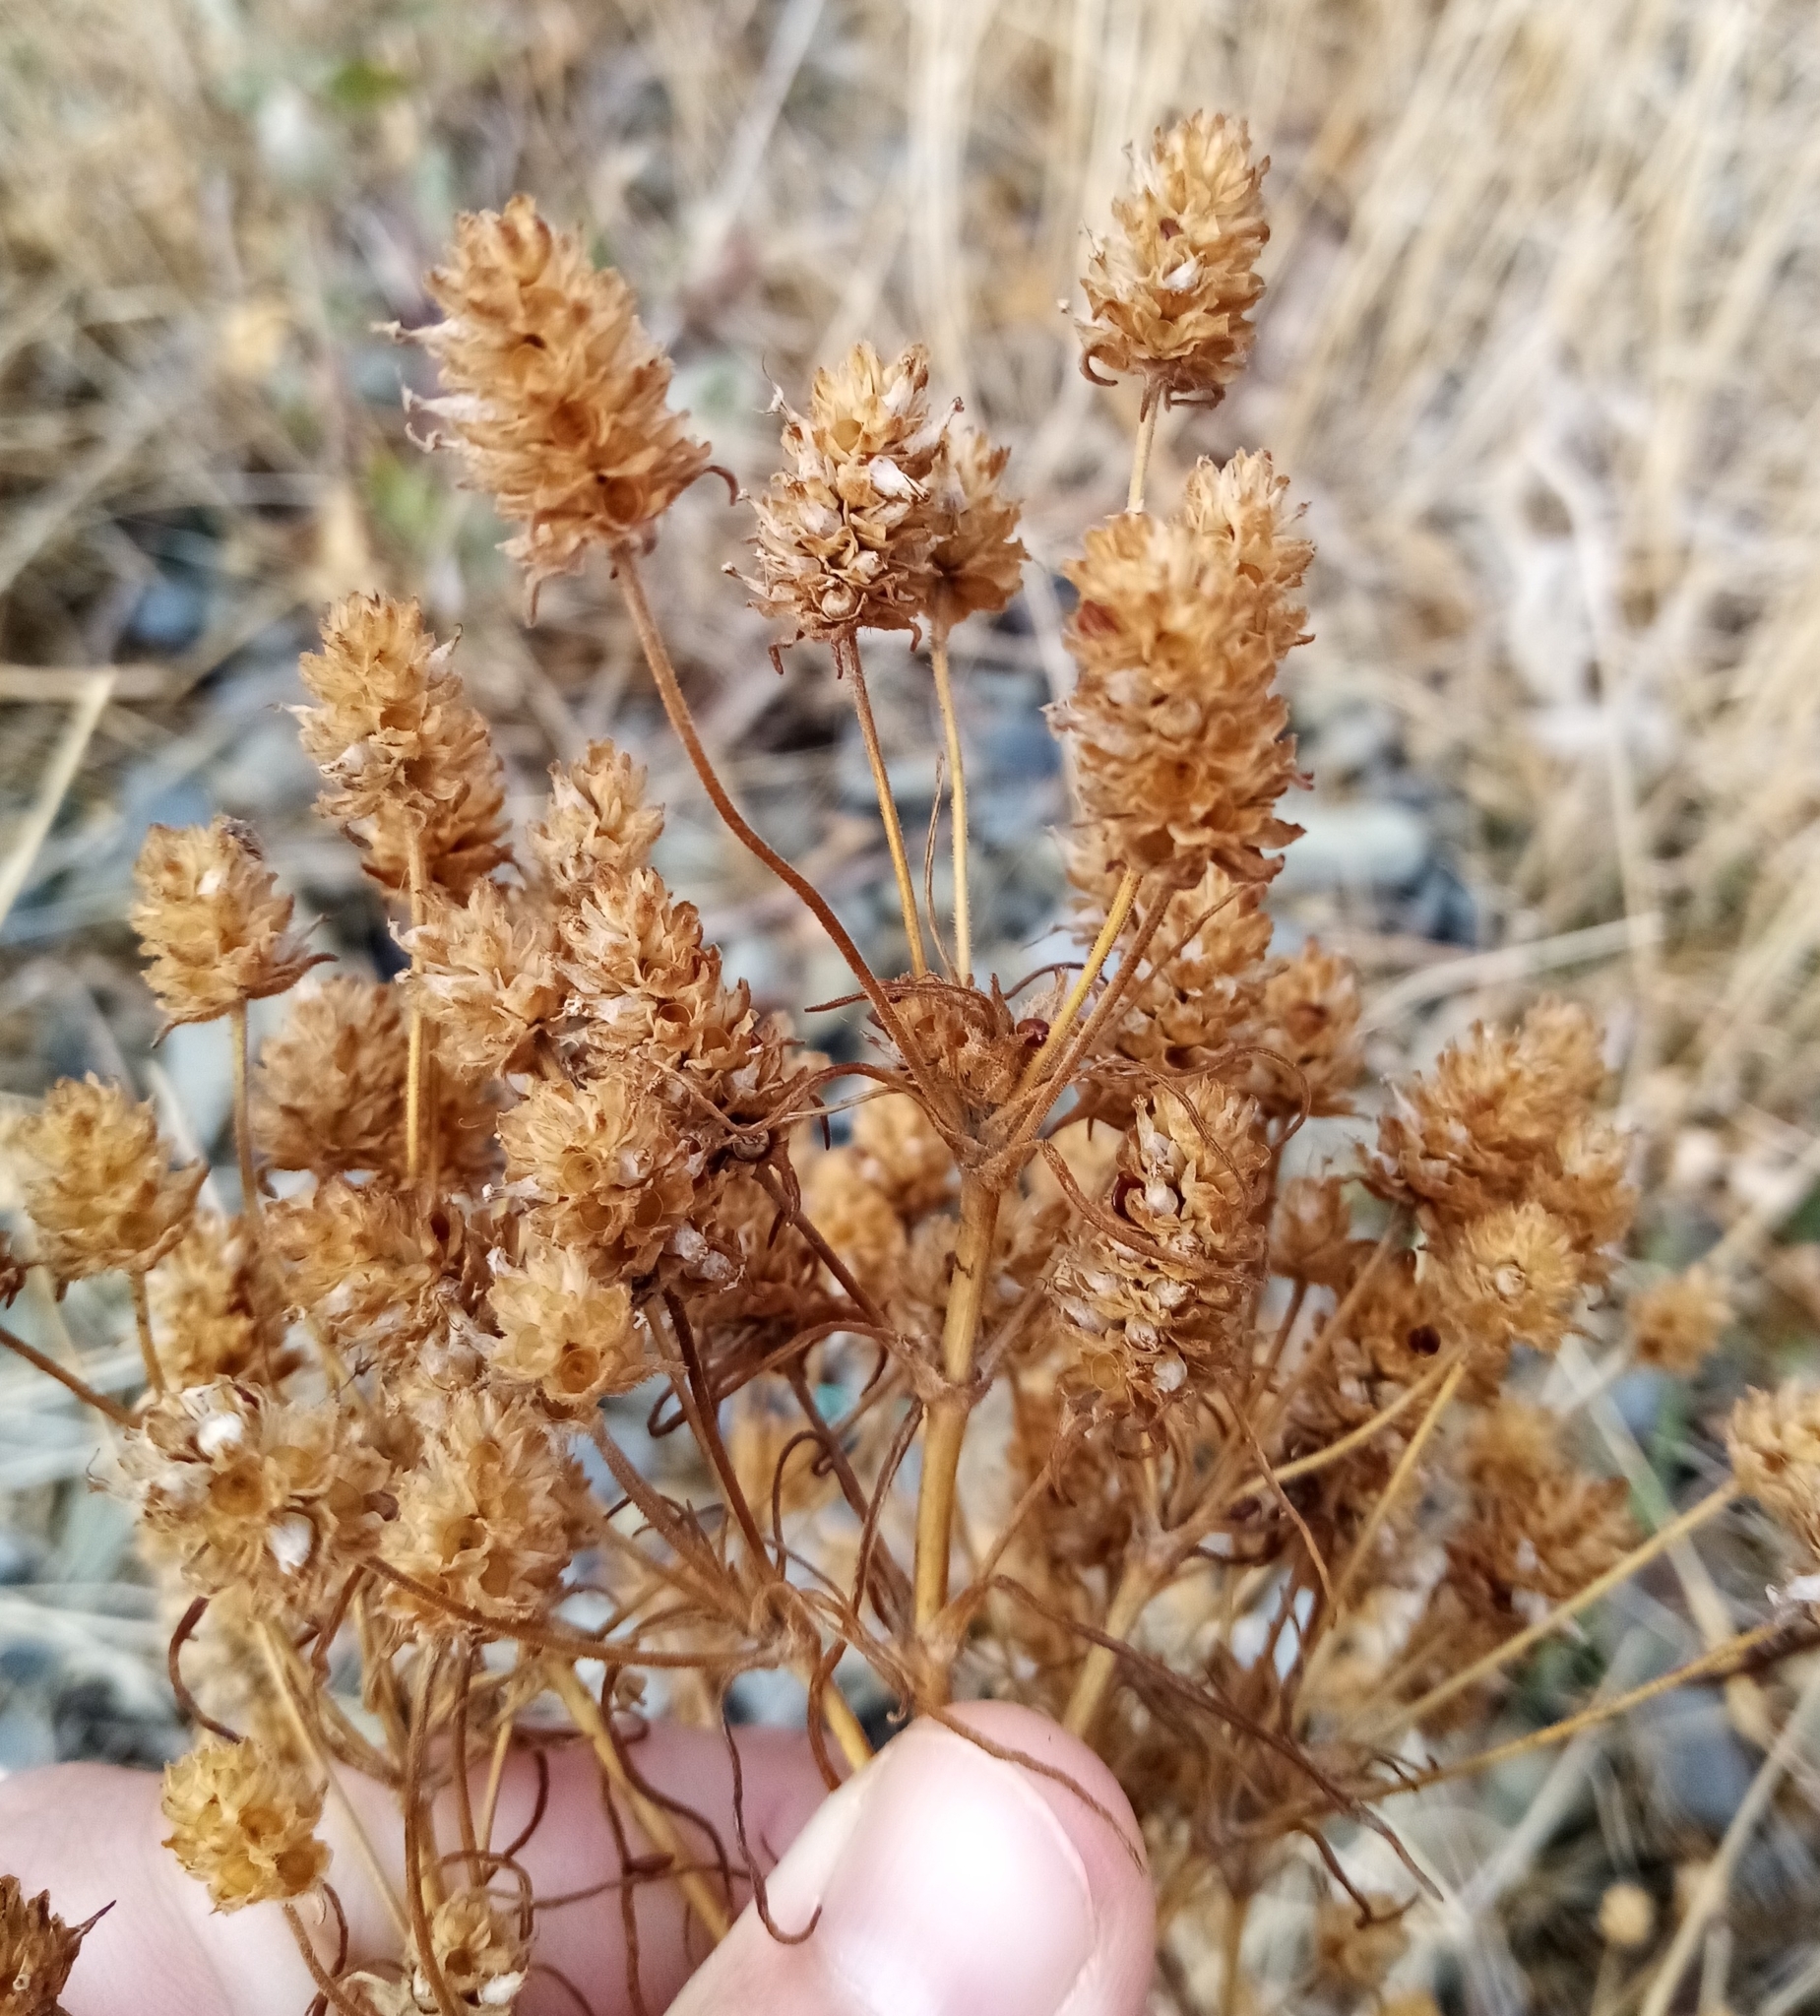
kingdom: Plantae
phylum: Tracheophyta
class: Magnoliopsida
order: Lamiales
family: Plantaginaceae
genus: Plantago
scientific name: Plantago arenaria
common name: Branched plantain
